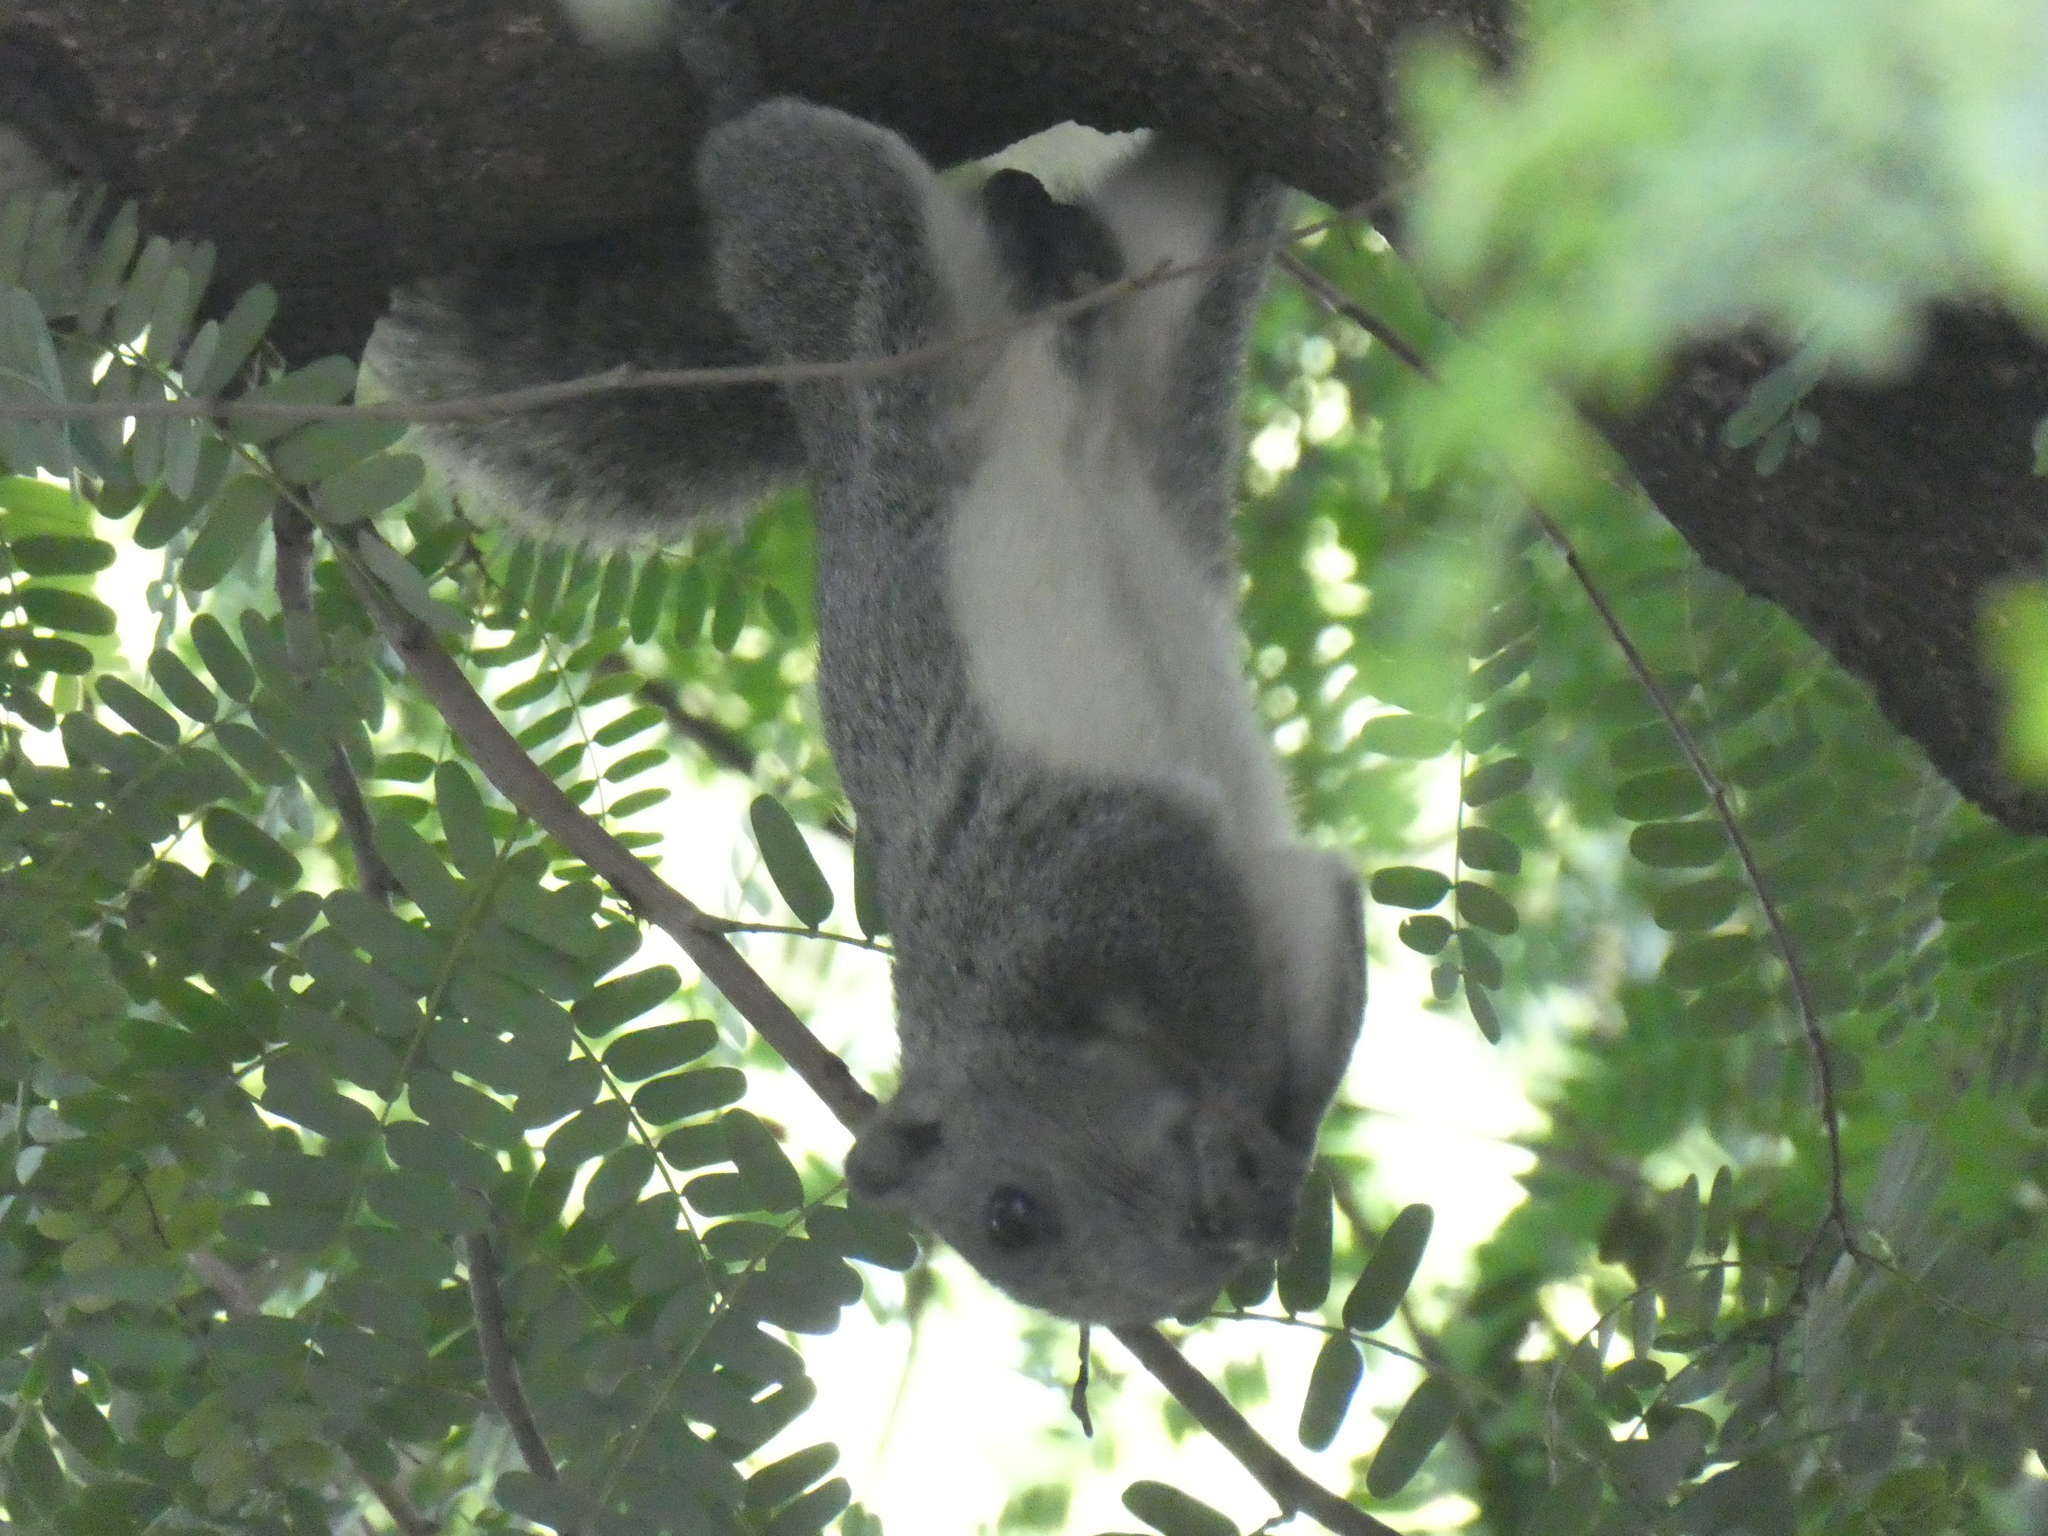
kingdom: Animalia
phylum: Chordata
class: Mammalia
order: Rodentia
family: Sciuridae
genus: Callosciurus
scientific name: Callosciurus finlaysonii
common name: Finlayson's squirrel
